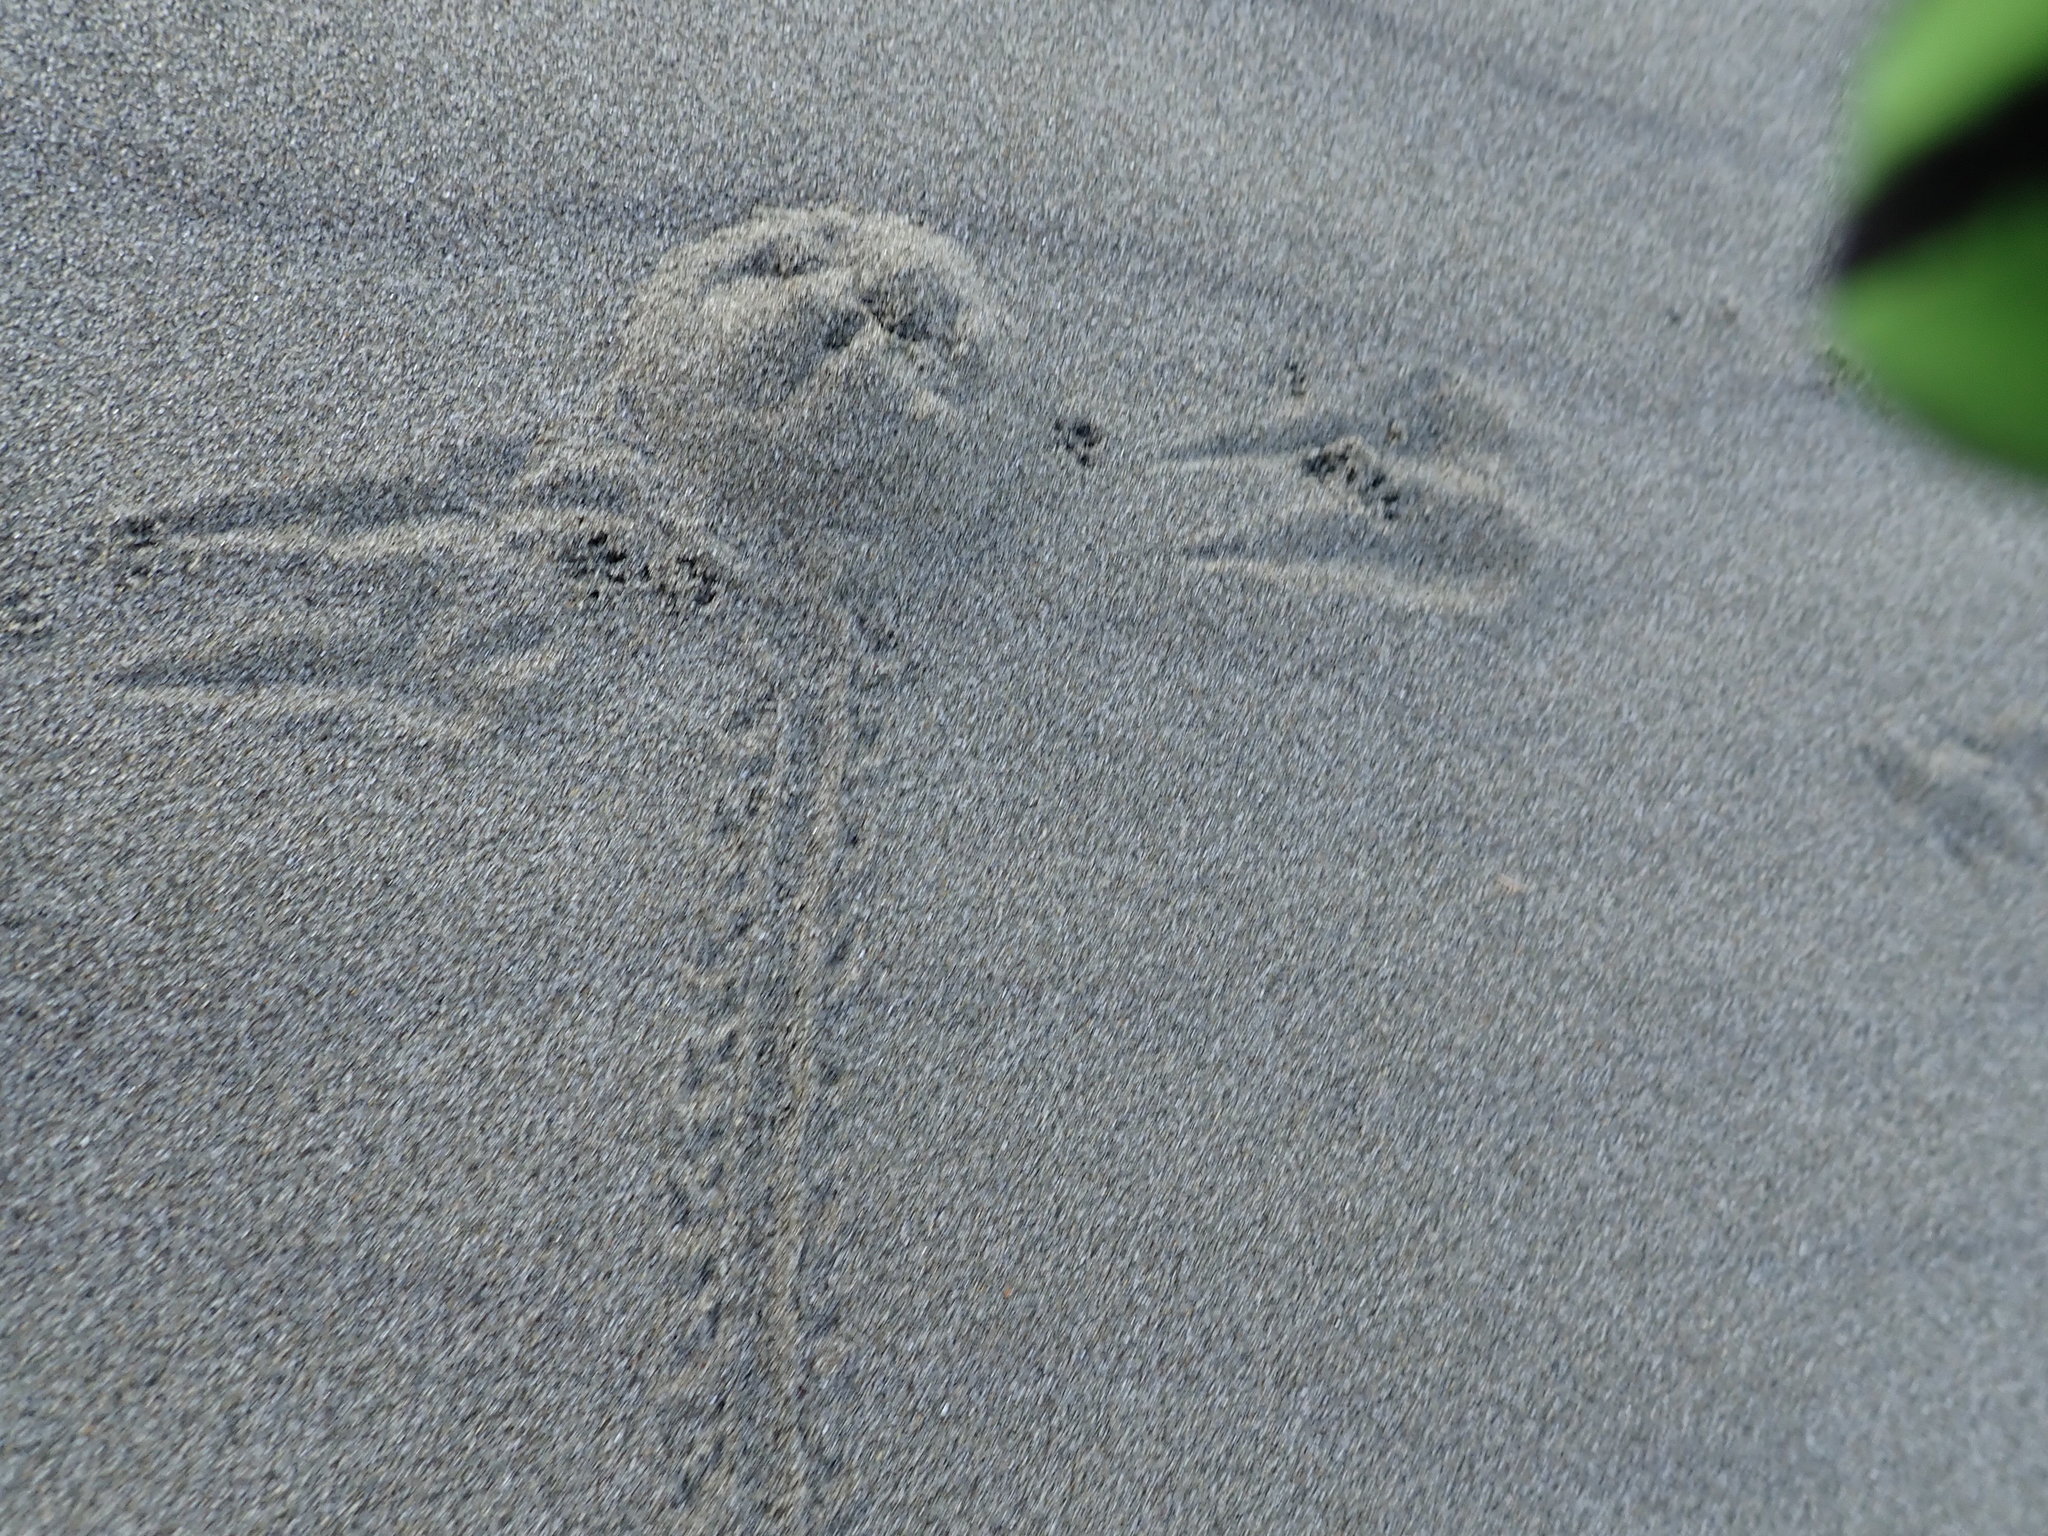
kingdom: Animalia
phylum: Arthropoda
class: Insecta
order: Coleoptera
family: Scarabaeidae
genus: Pericoptus
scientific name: Pericoptus truncatus
